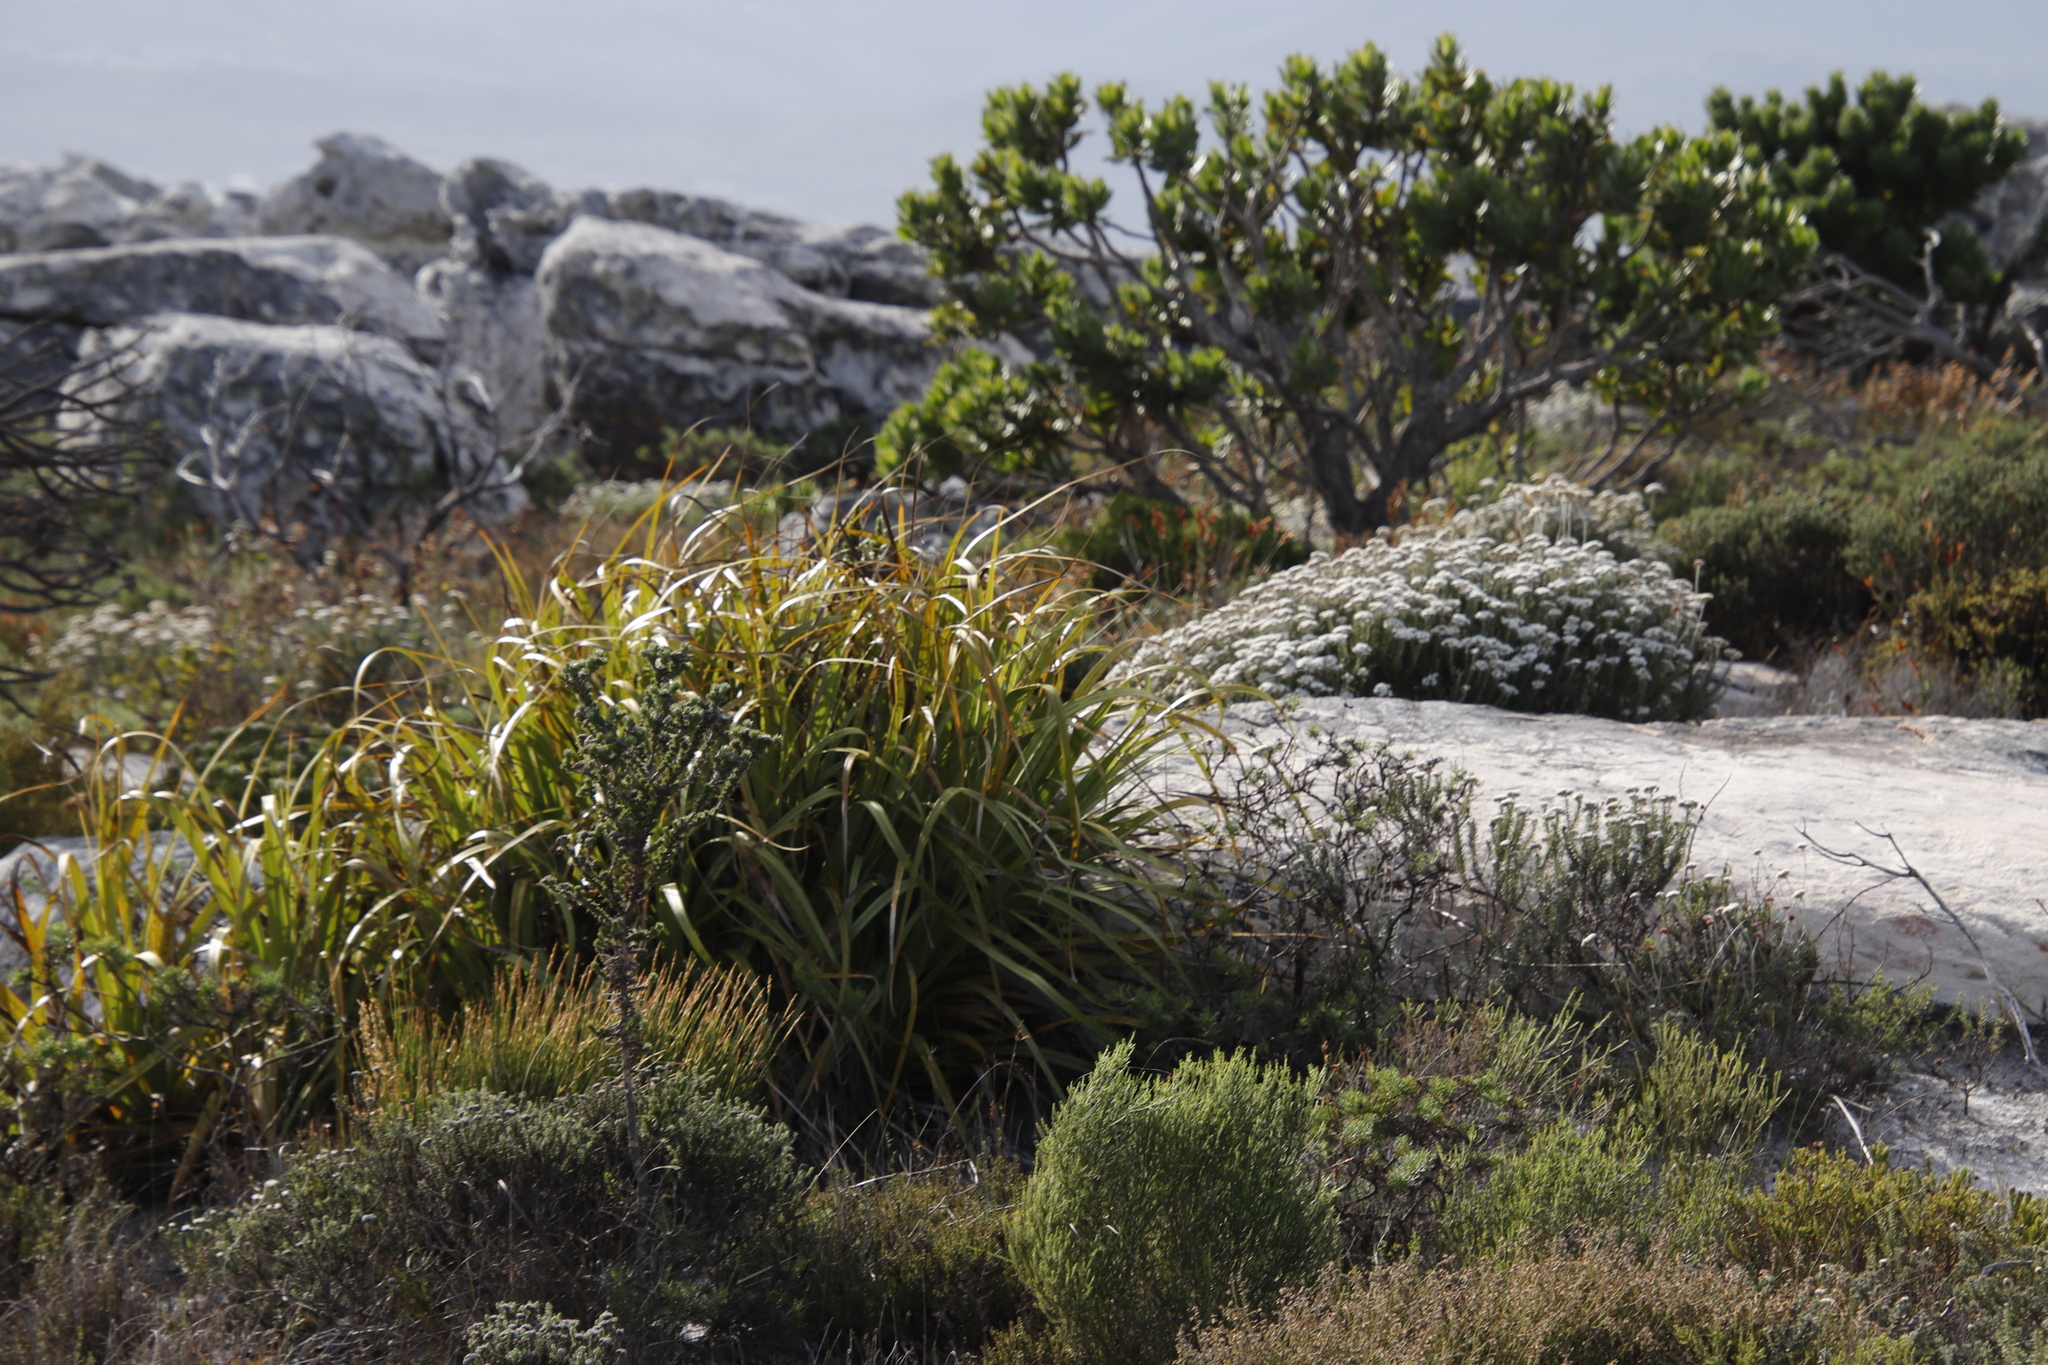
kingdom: Plantae
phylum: Tracheophyta
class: Liliopsida
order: Poales
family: Cyperaceae
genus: Tetraria
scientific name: Tetraria thermalis
